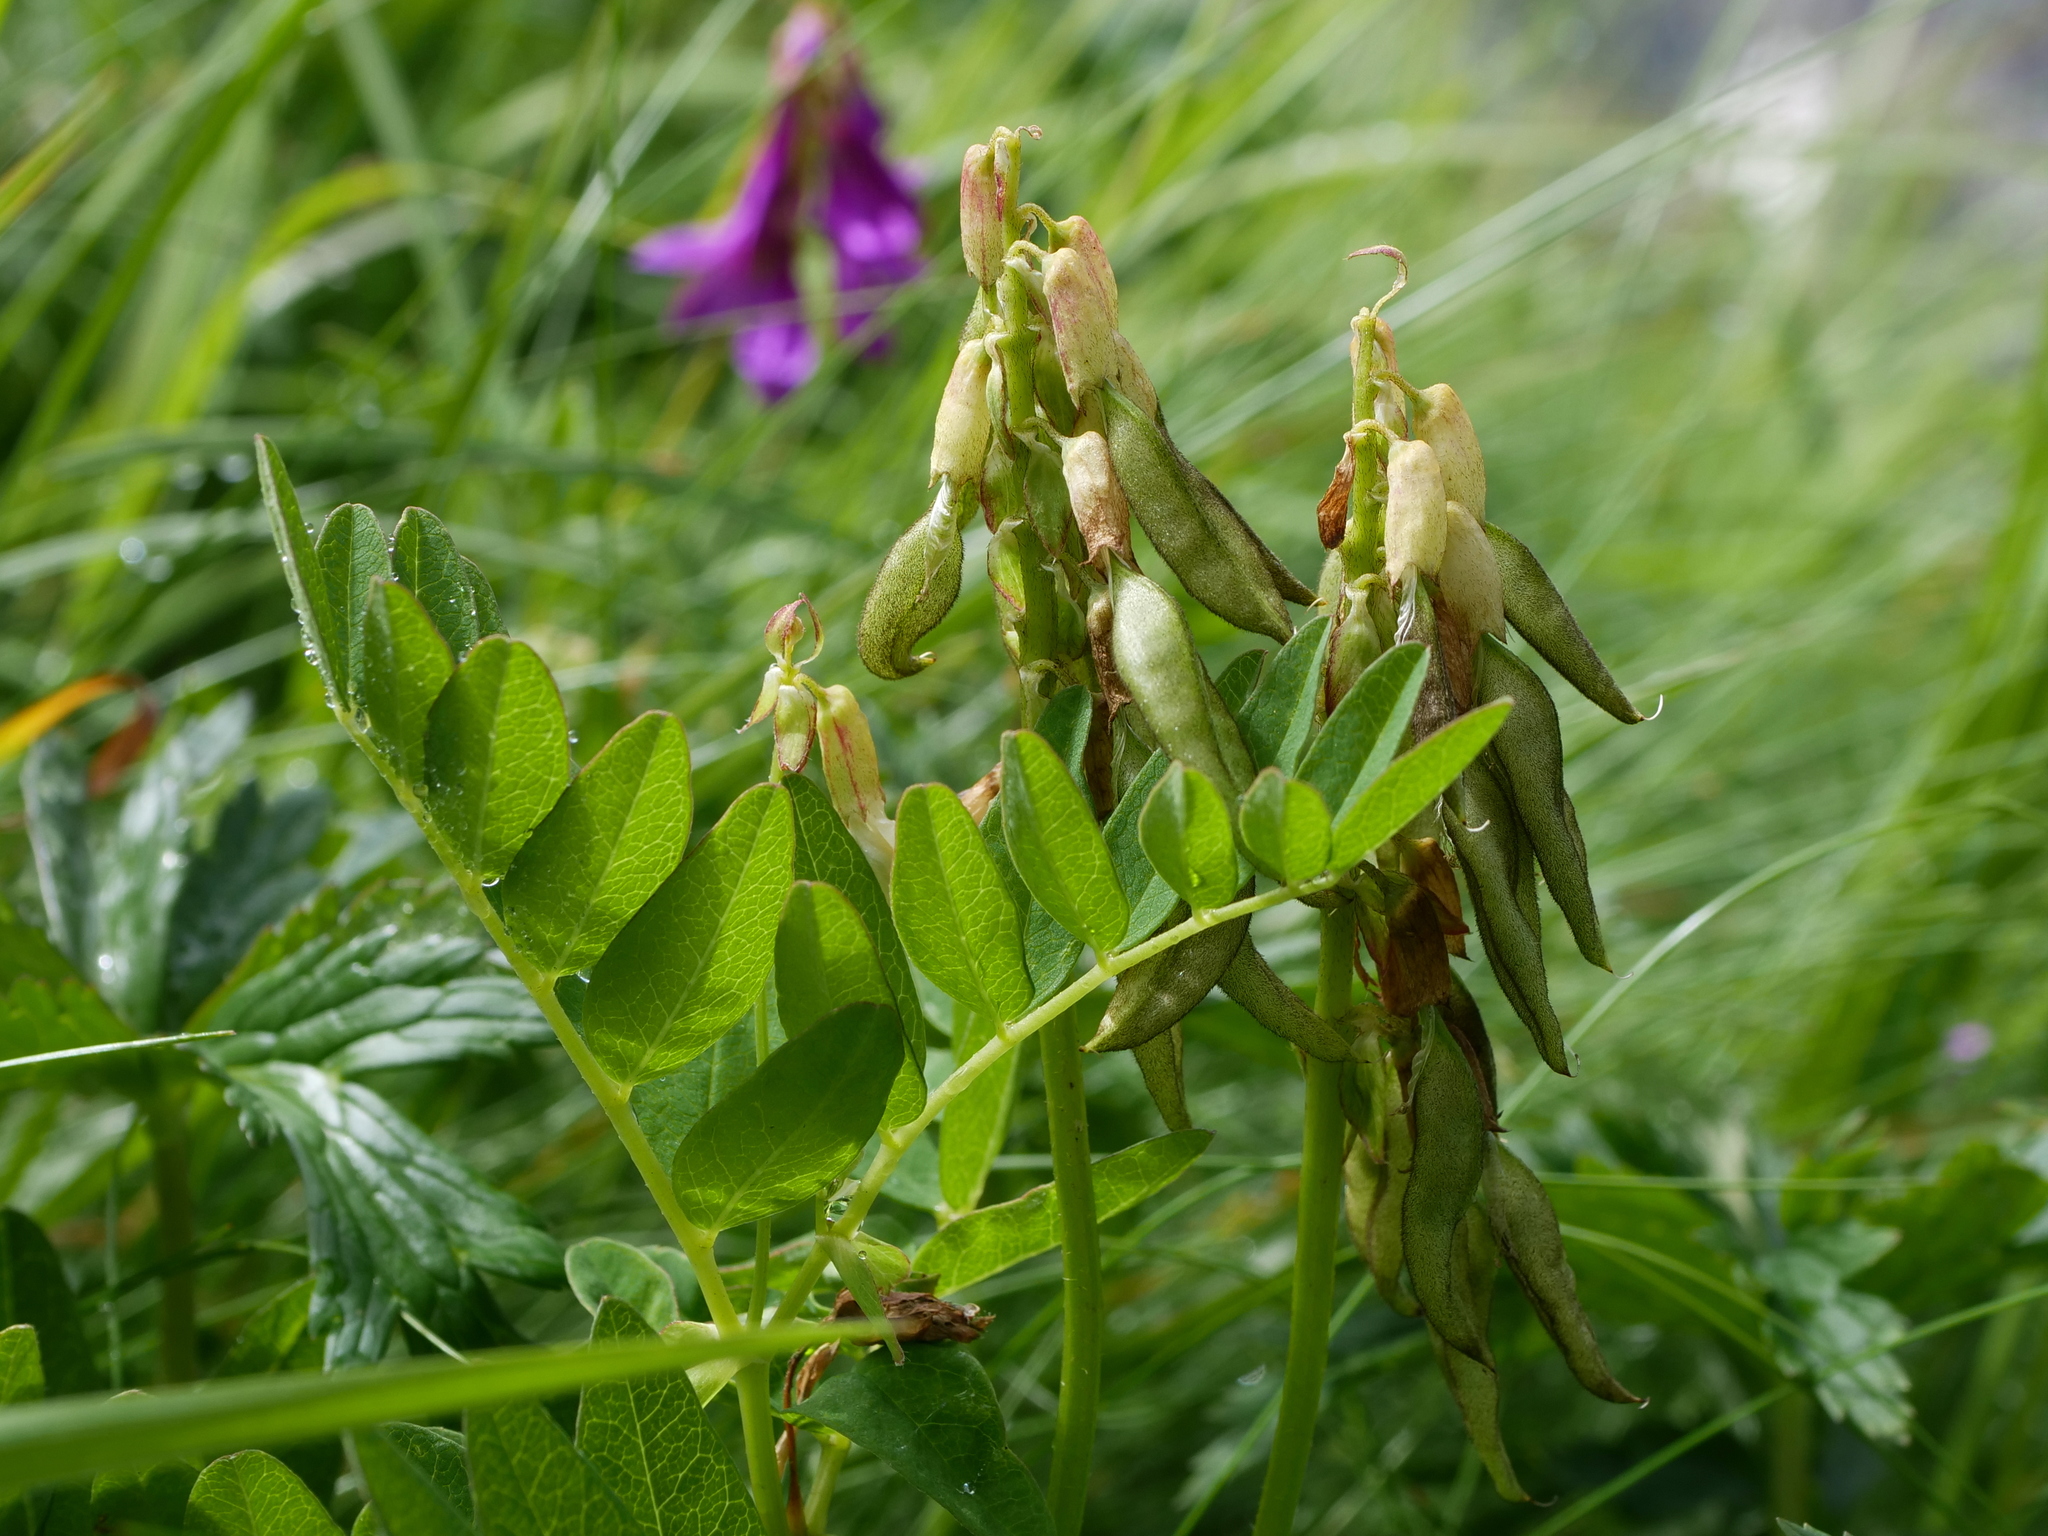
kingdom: Plantae
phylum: Tracheophyta
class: Magnoliopsida
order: Fabales
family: Fabaceae
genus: Astragalus
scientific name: Astragalus frigidus
